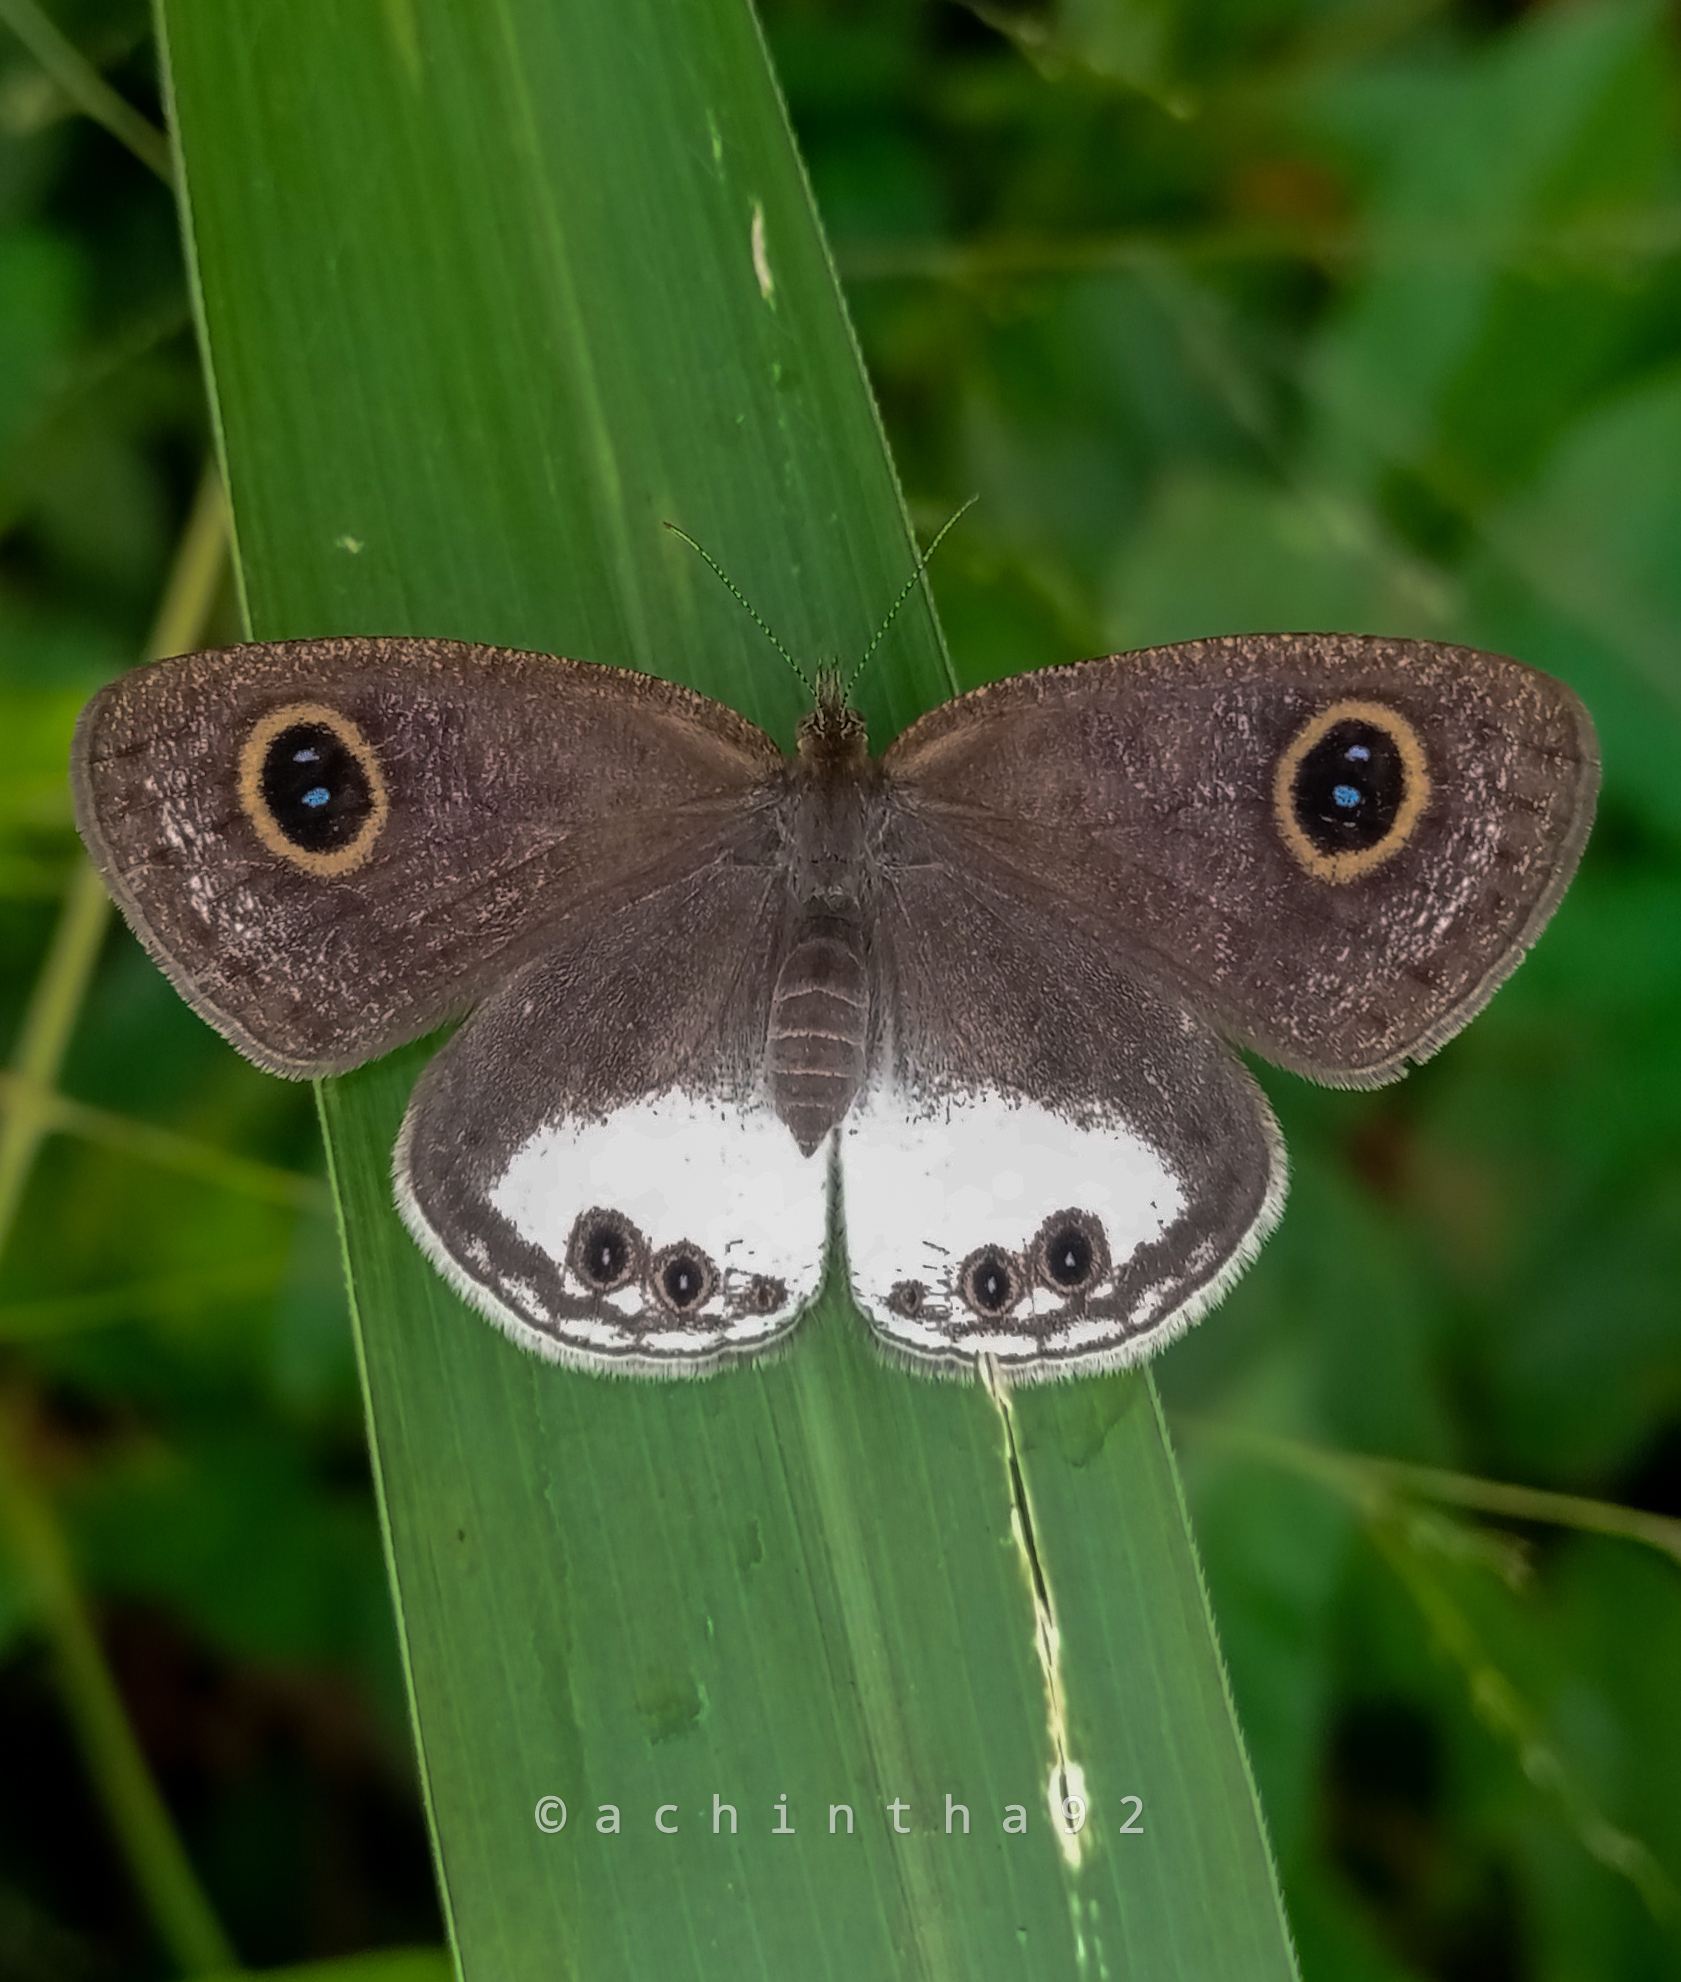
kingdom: Animalia
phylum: Arthropoda
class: Insecta
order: Lepidoptera
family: Nymphalidae
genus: Ypthima
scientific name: Ypthima ceylonica
